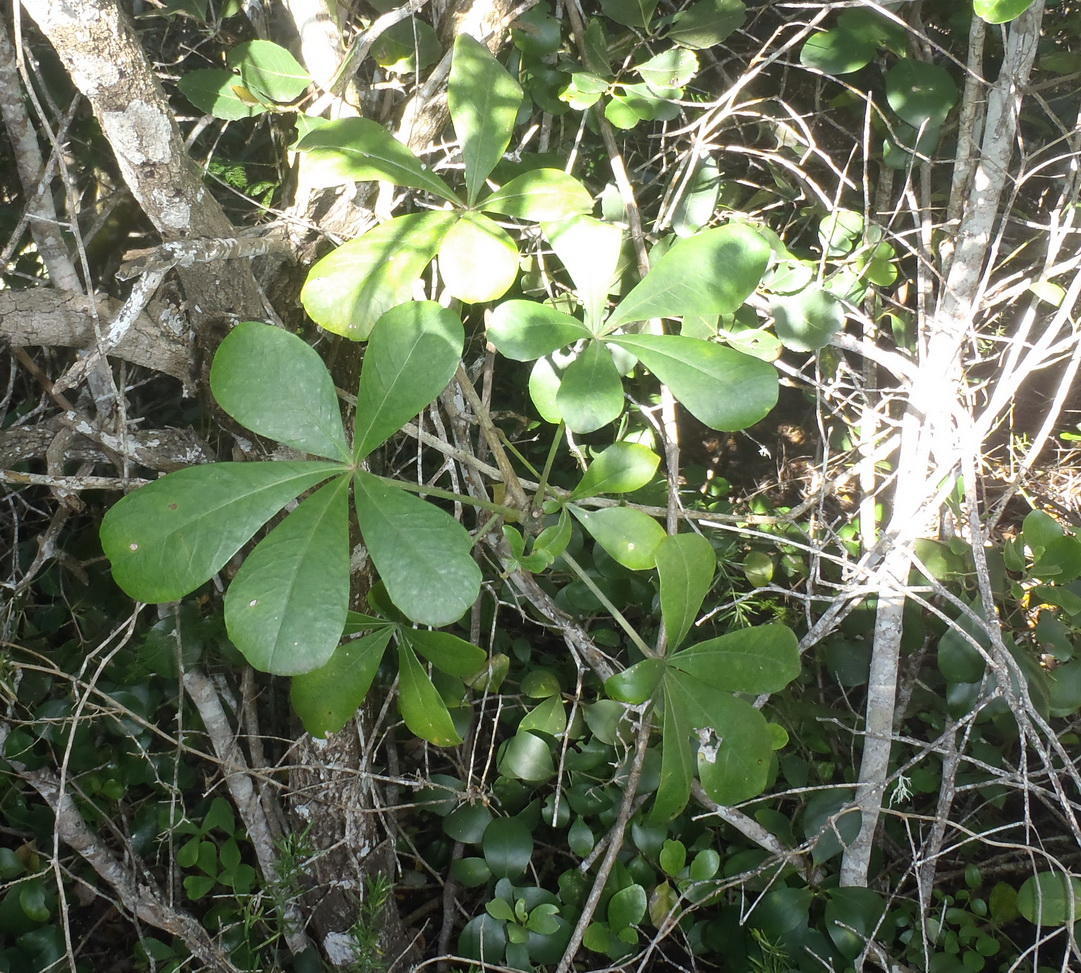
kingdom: Plantae
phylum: Tracheophyta
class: Magnoliopsida
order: Apiales
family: Araliaceae
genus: Cussonia
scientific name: Cussonia thyrsiflora
